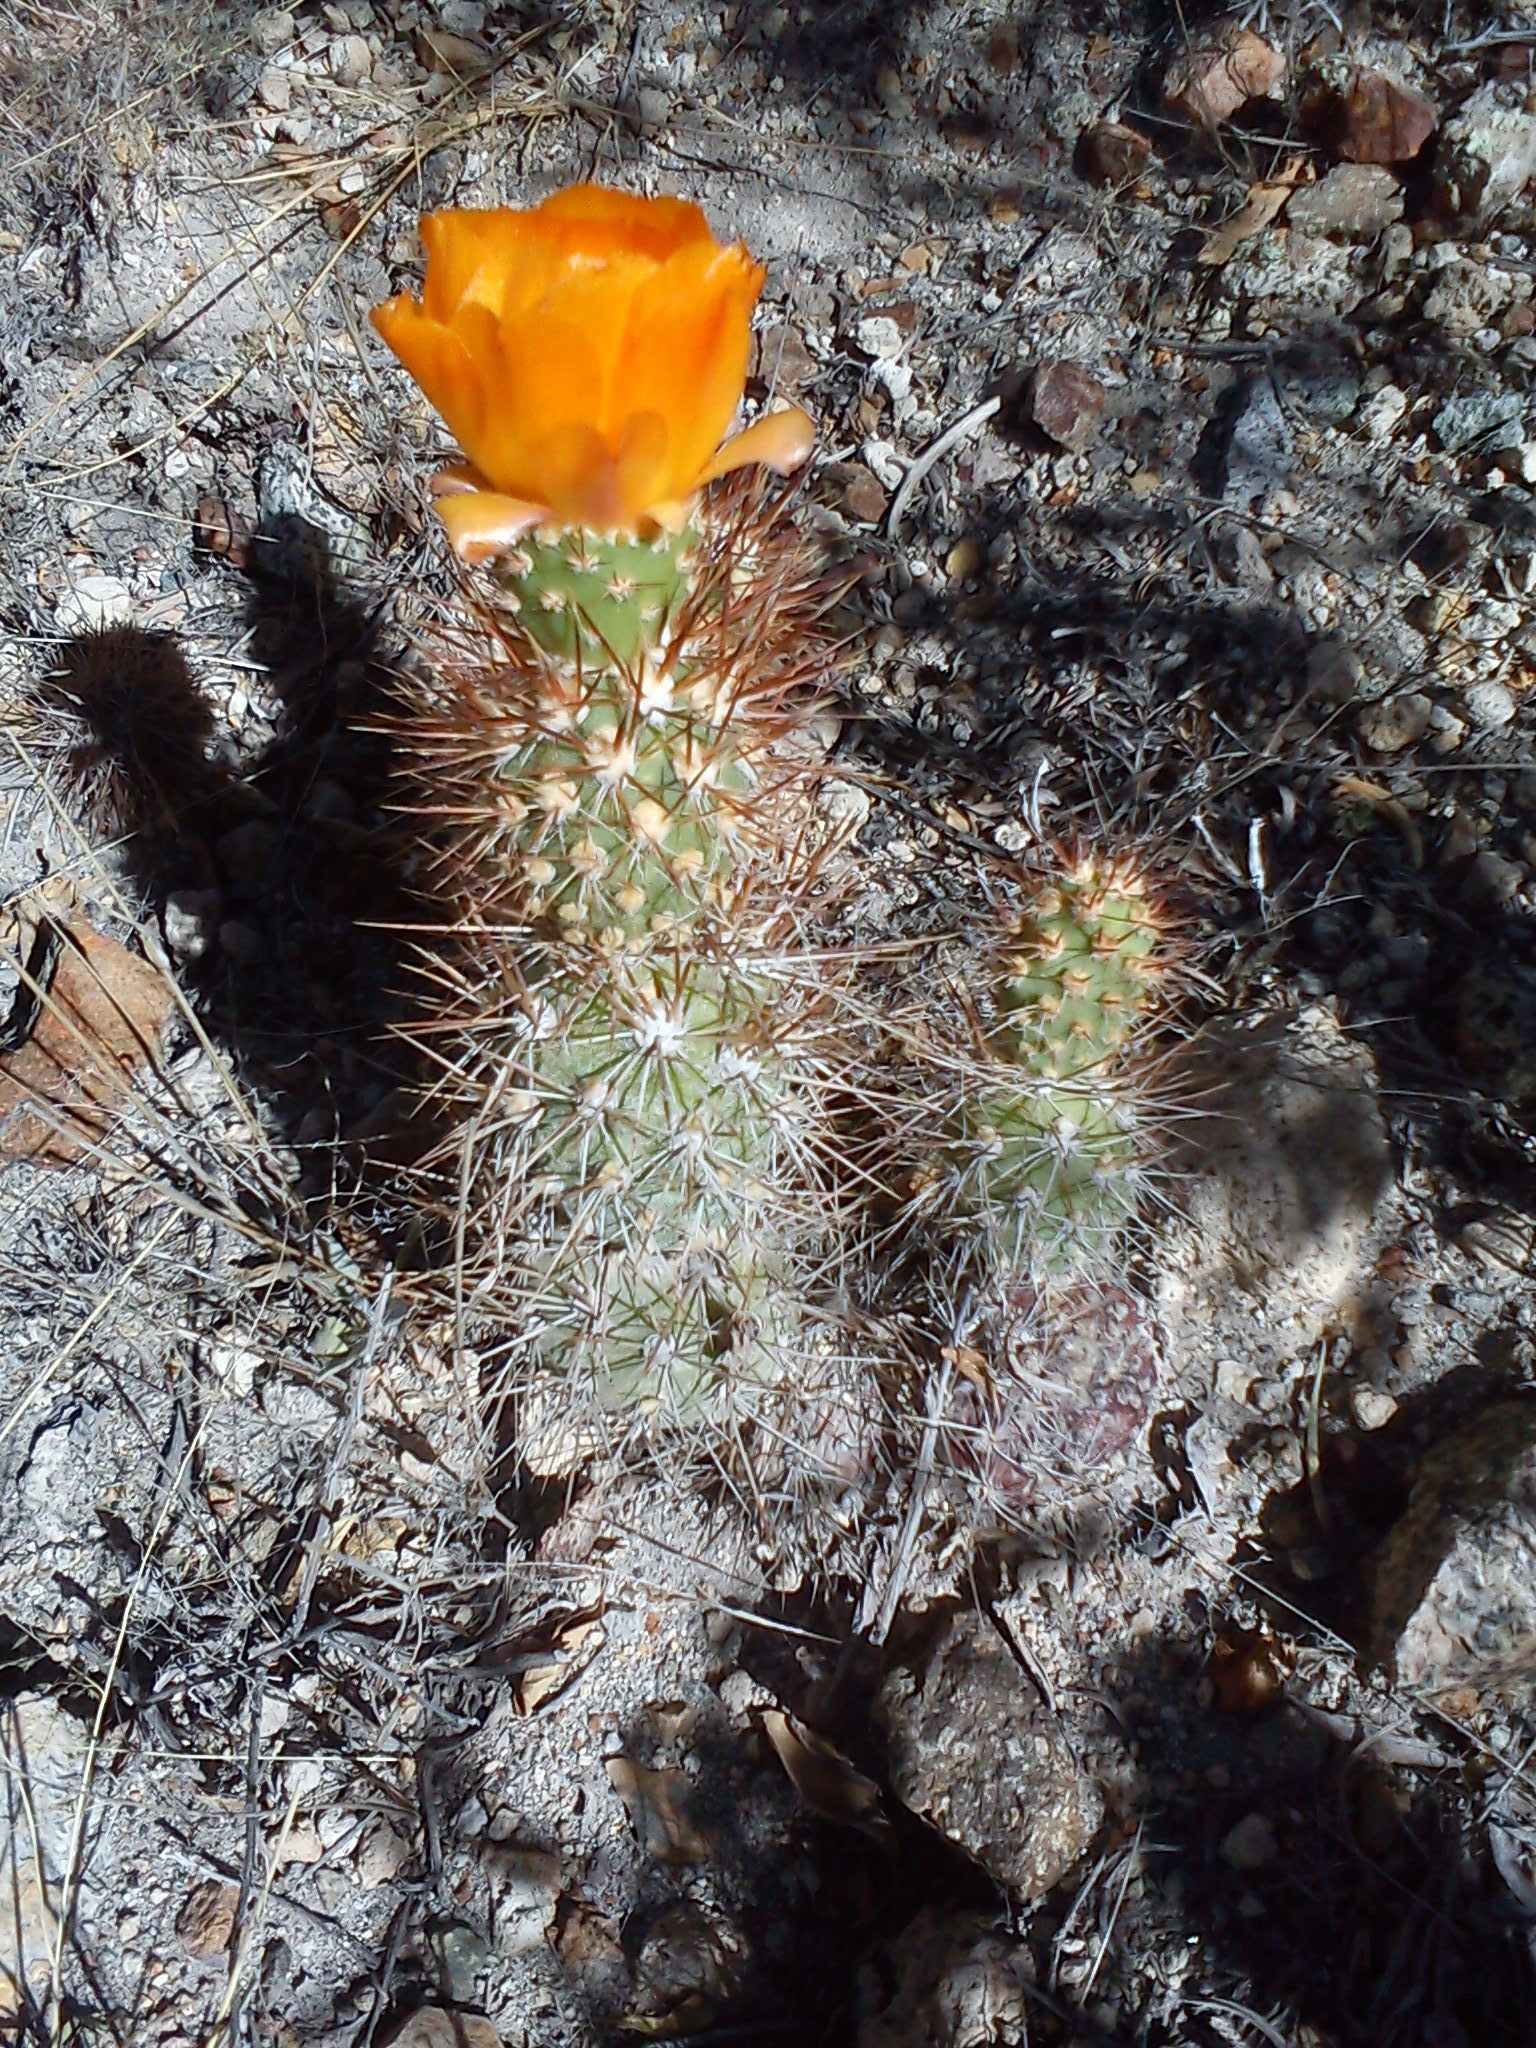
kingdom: Plantae
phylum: Tracheophyta
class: Magnoliopsida
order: Caryophyllales
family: Cactaceae
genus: Cumulopuntia
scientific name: Cumulopuntia leucophaea
